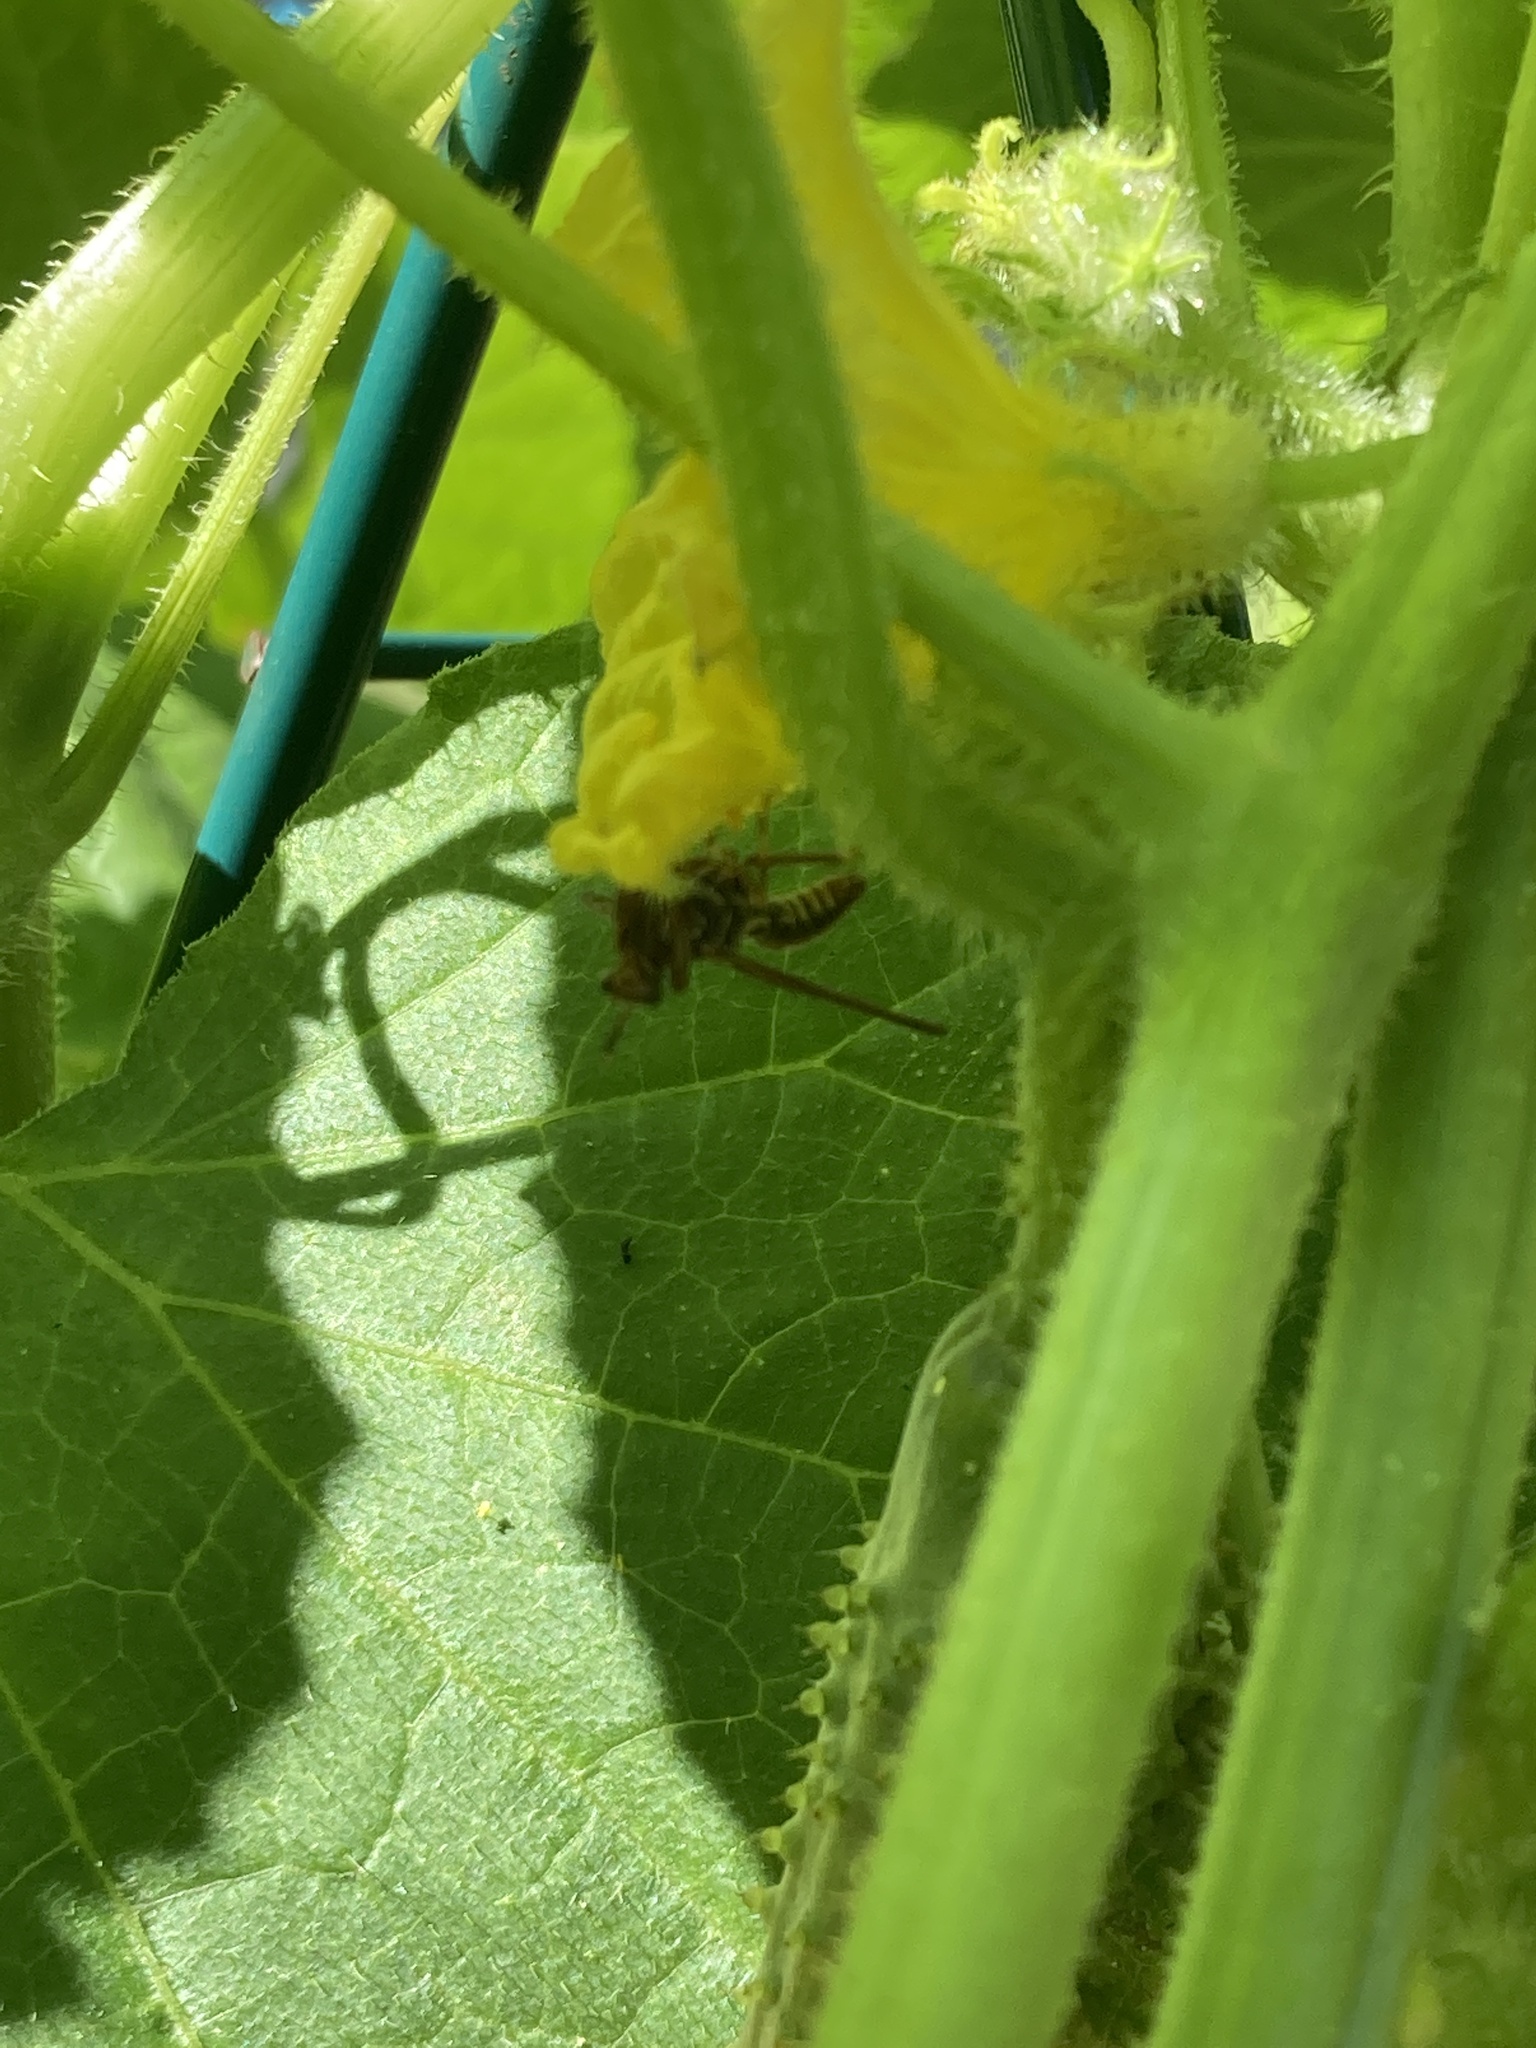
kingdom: Animalia
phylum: Arthropoda
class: Insecta
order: Neuroptera
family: Mantispidae
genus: Climaciella
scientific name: Climaciella brunnea
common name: Brown wasp mantidfly
